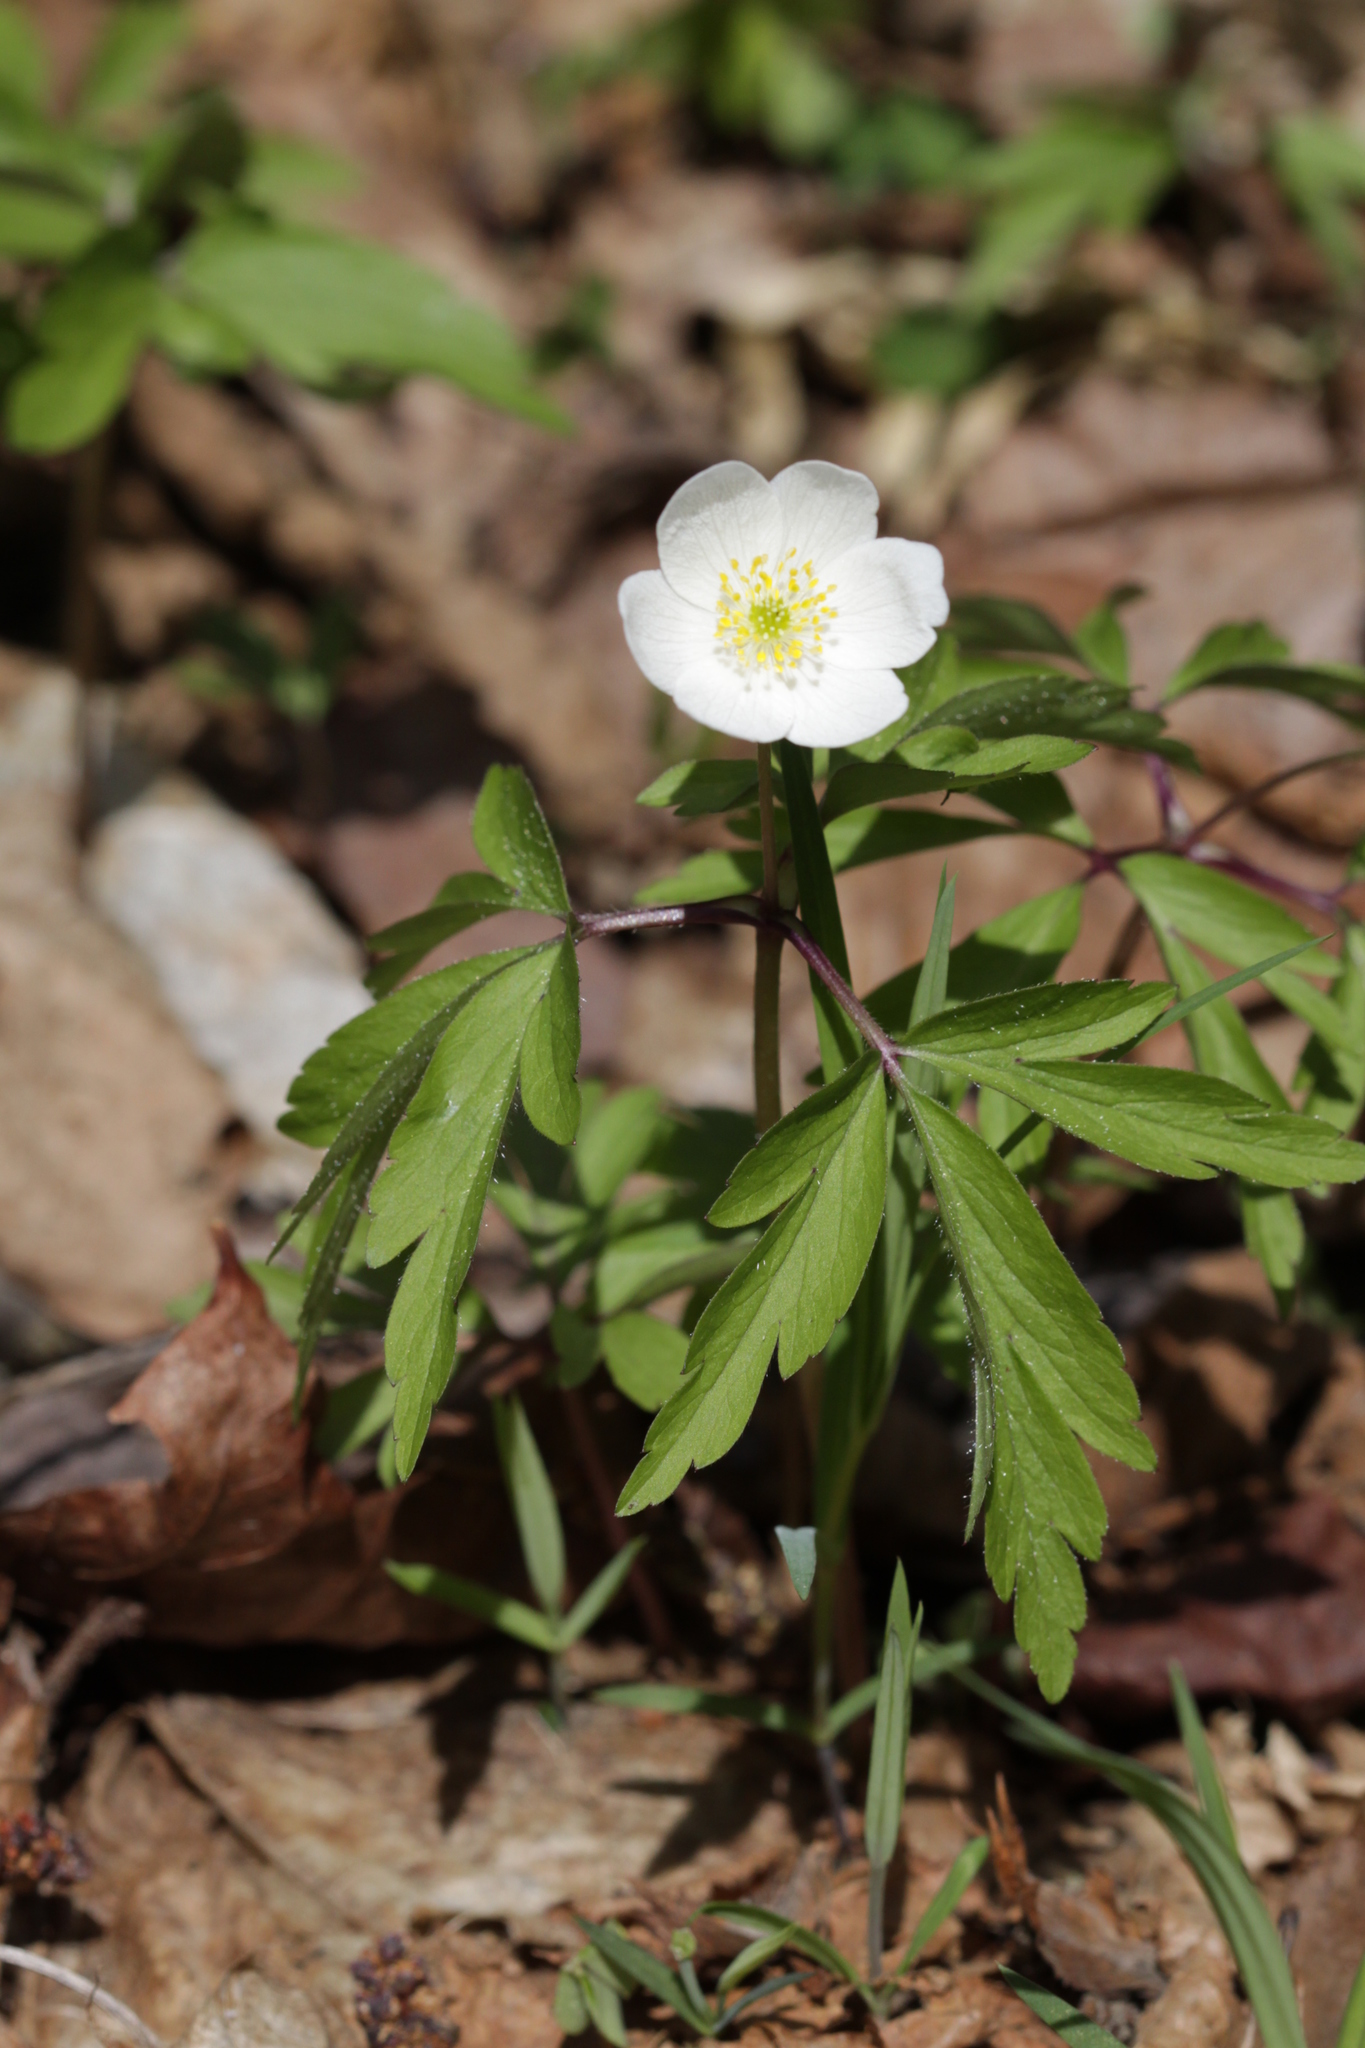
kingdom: Plantae
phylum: Tracheophyta
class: Magnoliopsida
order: Ranunculales
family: Ranunculaceae
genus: Anemone
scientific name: Anemone nemorosa
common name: Wood anemone
